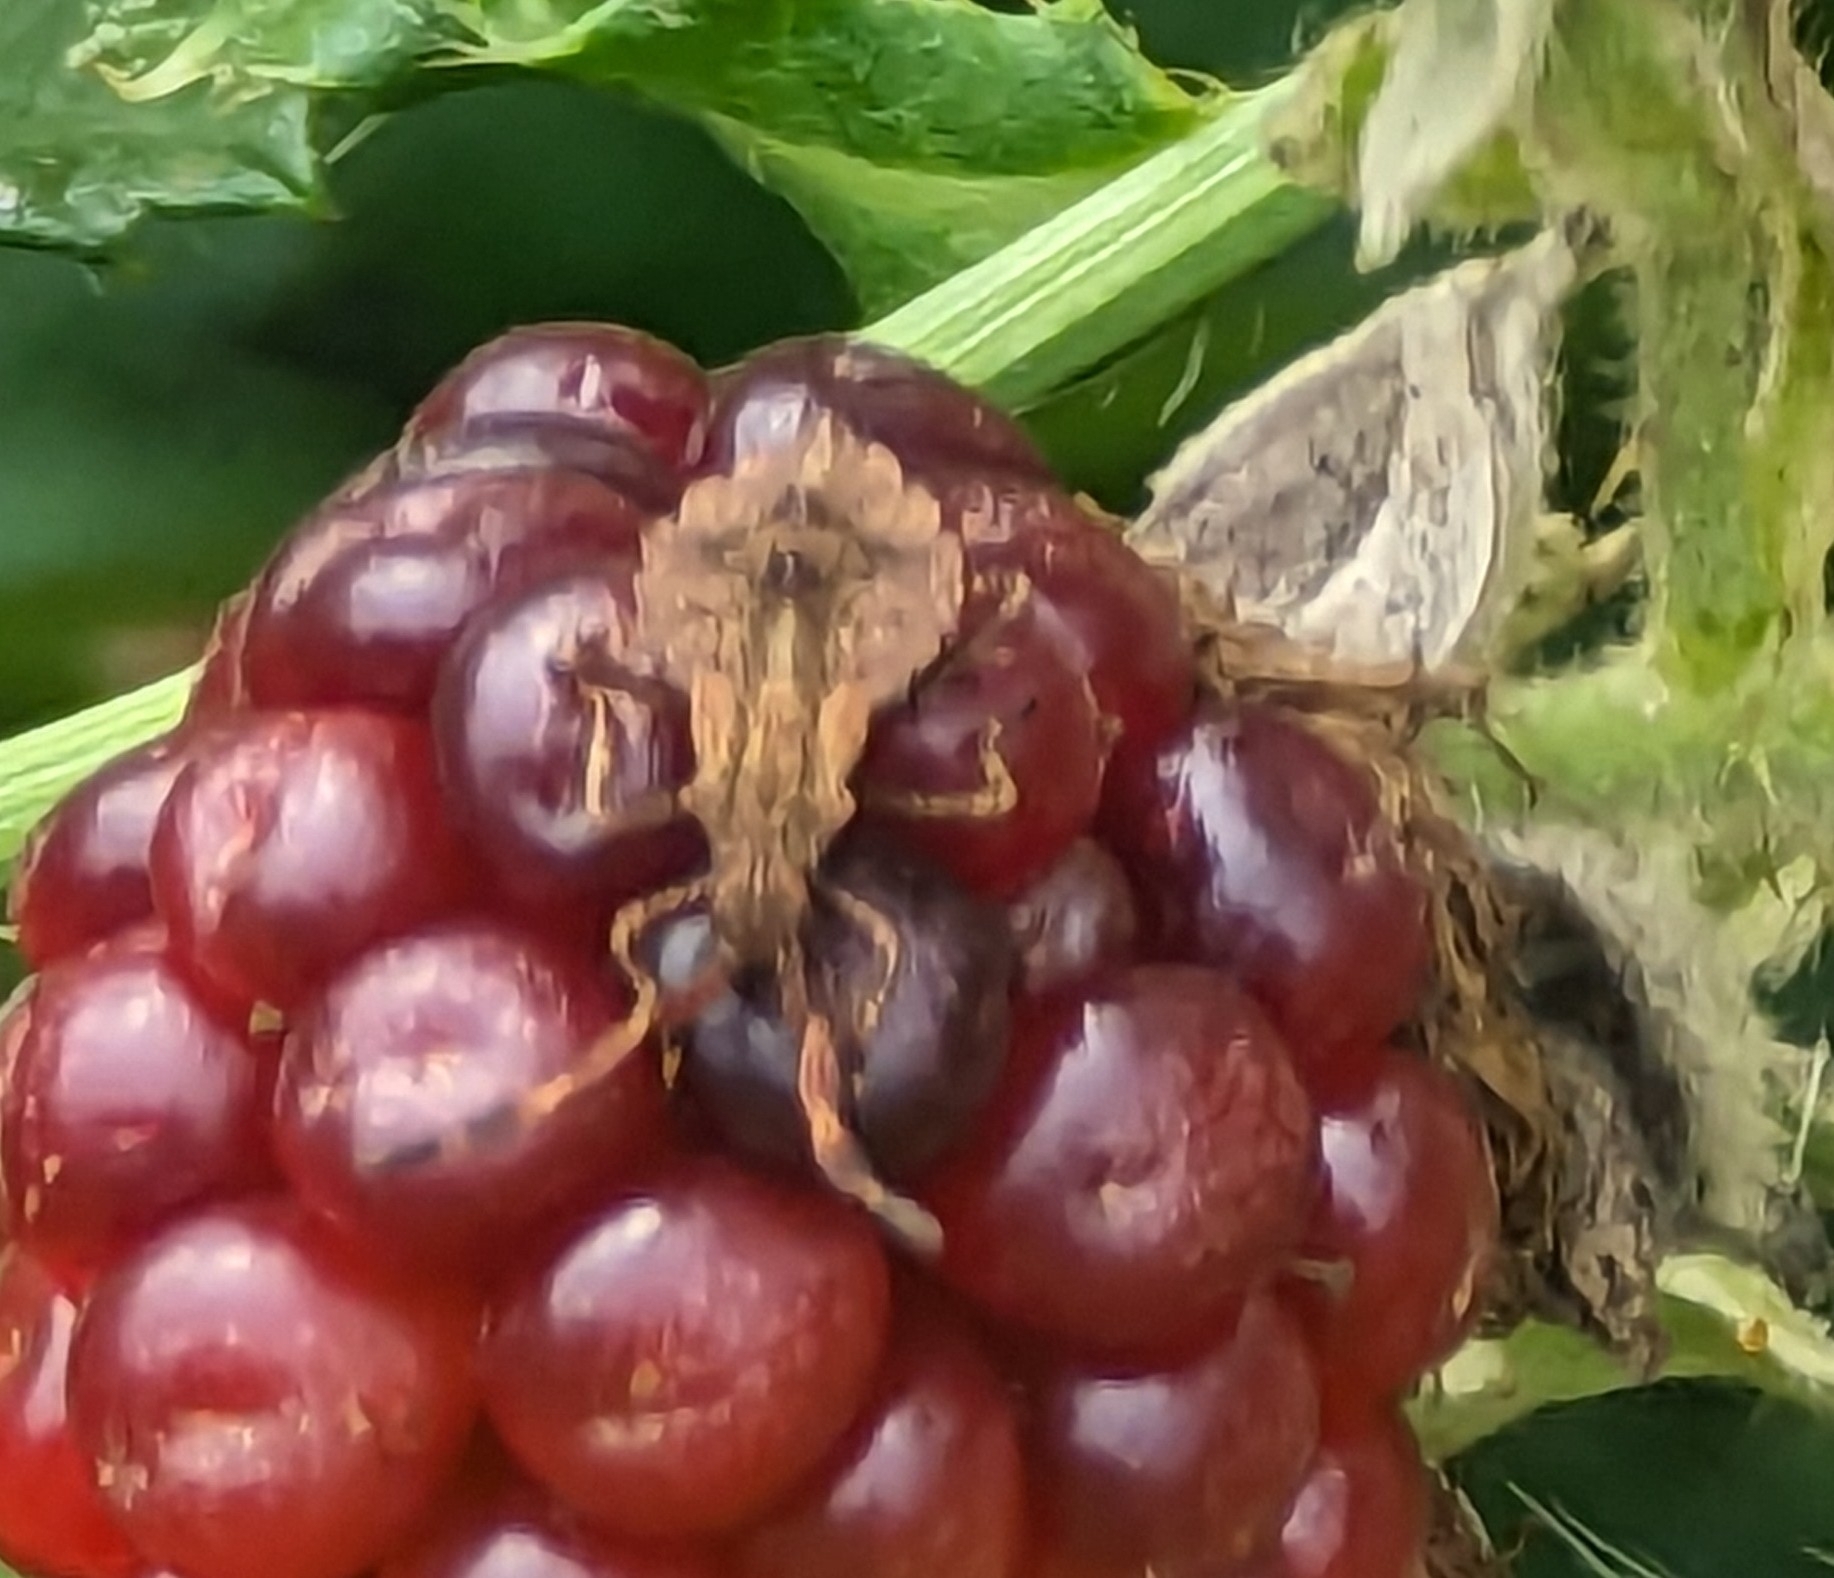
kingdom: Animalia
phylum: Arthropoda
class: Insecta
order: Hemiptera
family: Coreidae
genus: Coreus
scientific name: Coreus marginatus
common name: Dock bug
